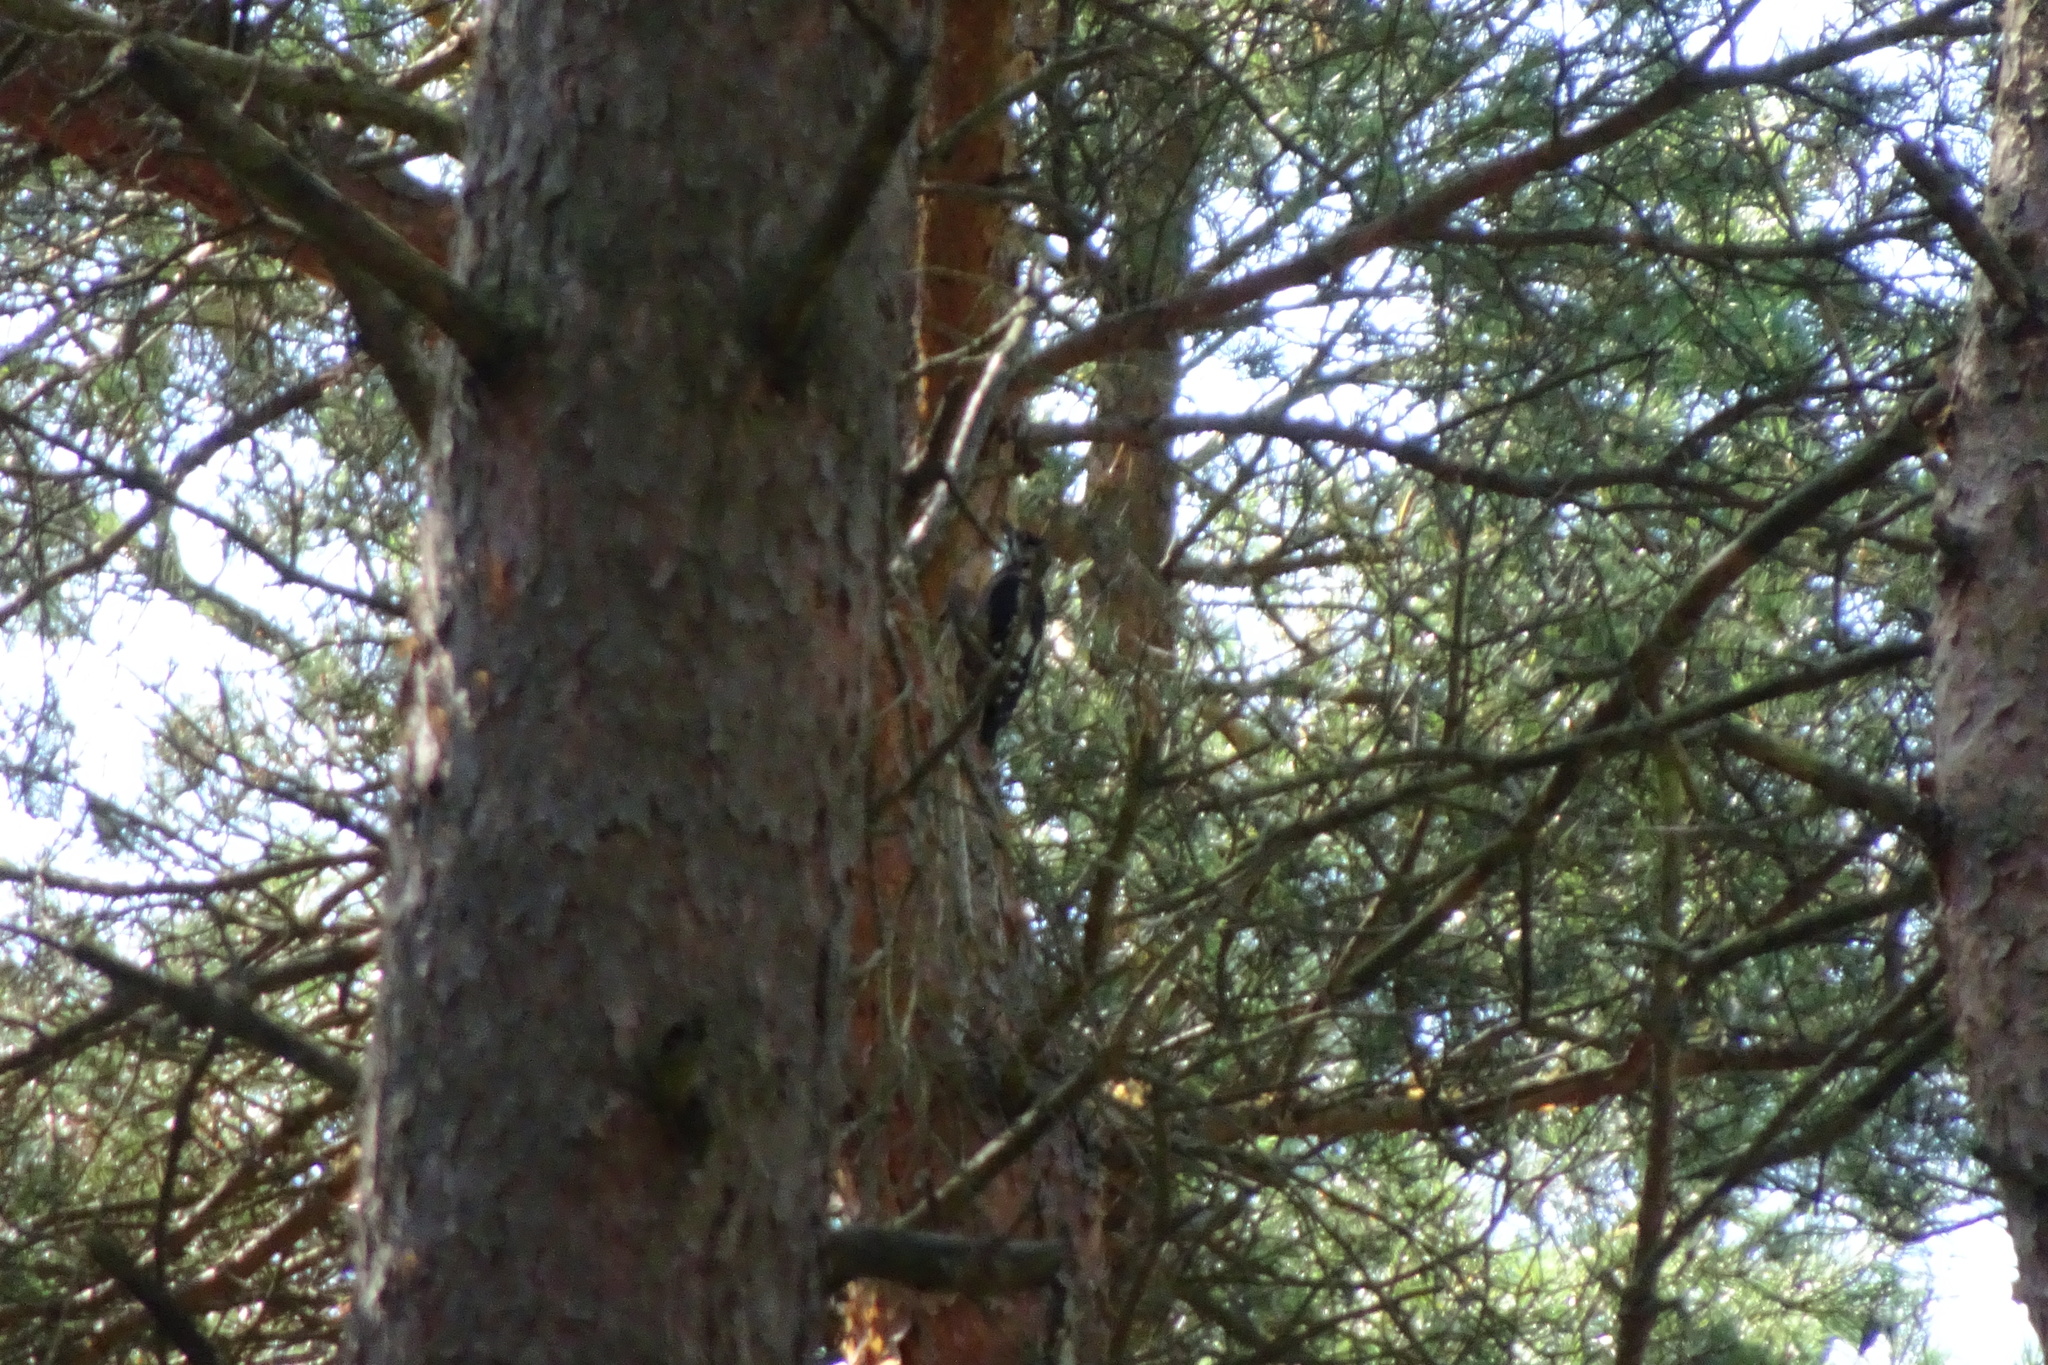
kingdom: Animalia
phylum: Chordata
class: Aves
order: Piciformes
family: Picidae
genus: Dendrocopos
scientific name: Dendrocopos major
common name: Great spotted woodpecker
